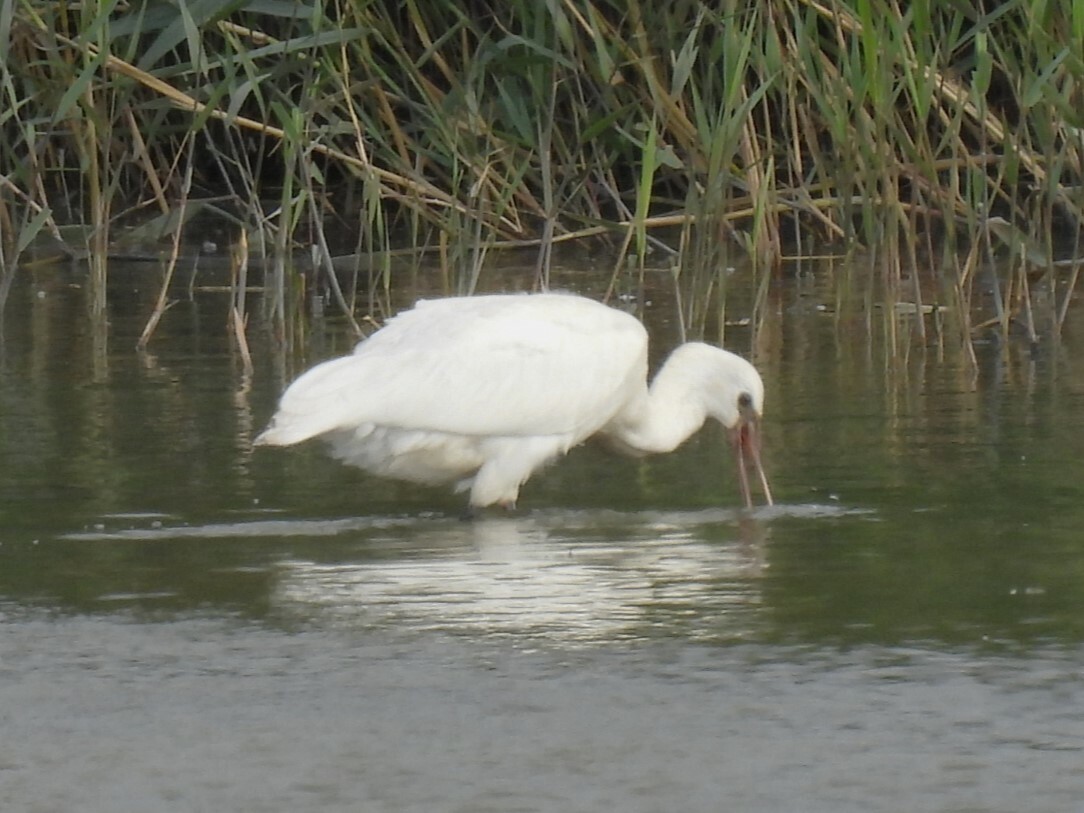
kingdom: Animalia
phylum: Chordata
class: Aves
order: Pelecaniformes
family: Threskiornithidae
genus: Platalea
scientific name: Platalea leucorodia
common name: Eurasian spoonbill
